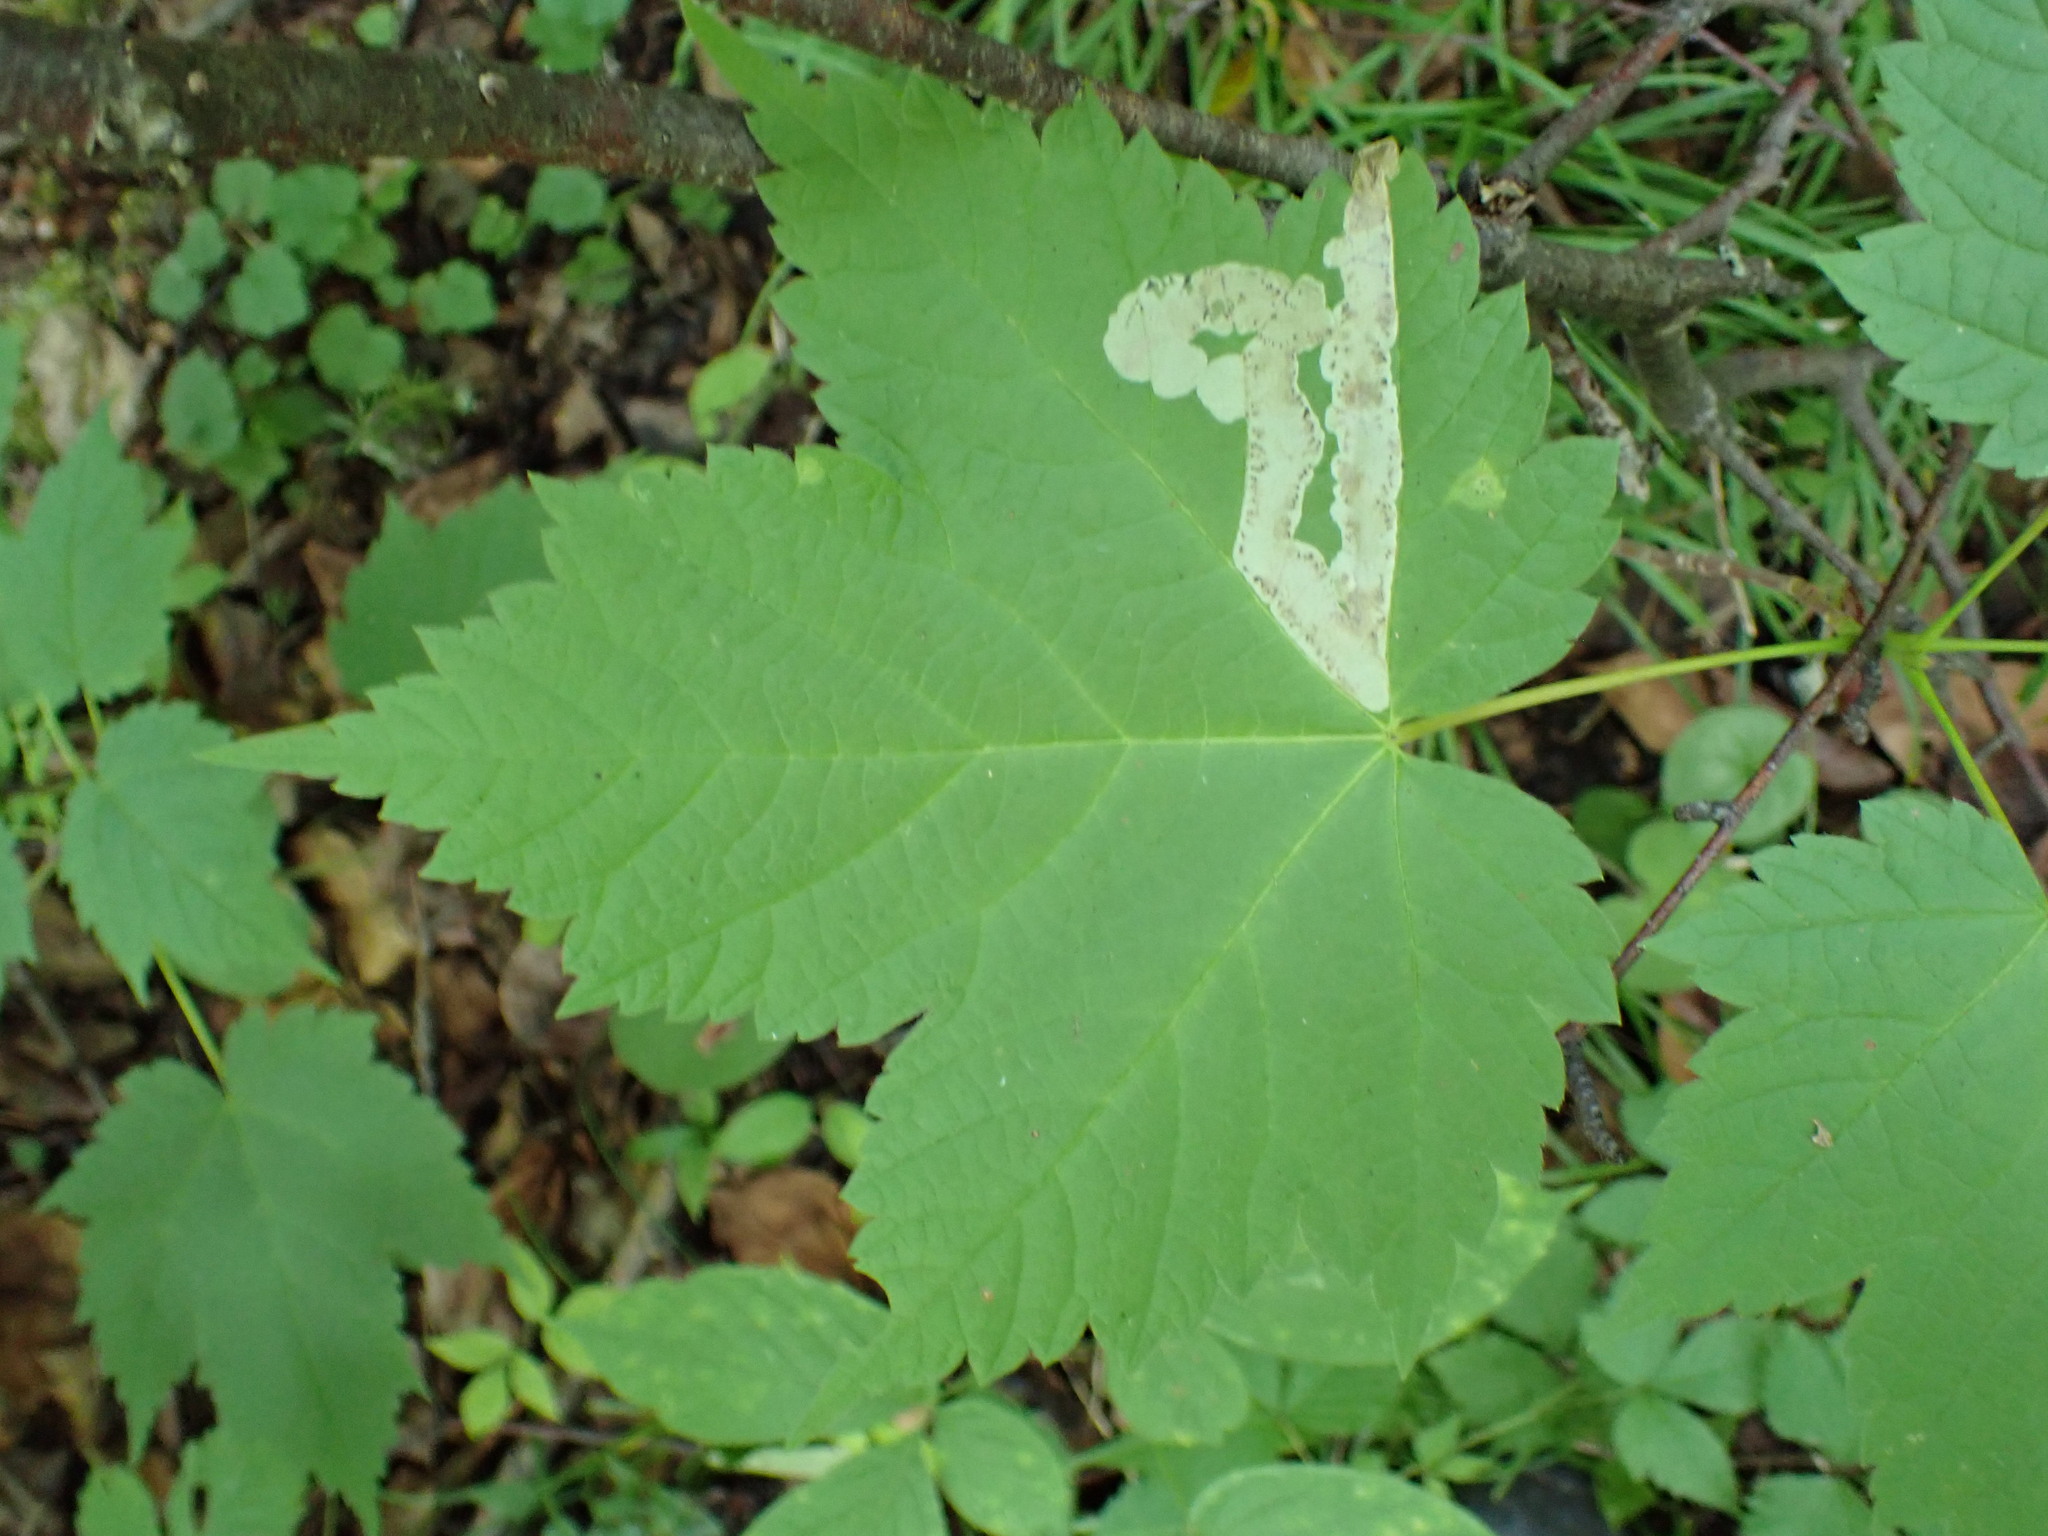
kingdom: Animalia
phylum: Arthropoda
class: Insecta
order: Lepidoptera
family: Gracillariidae
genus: Cameraria
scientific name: Cameraria aceriella
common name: Maple leafblotch miner
